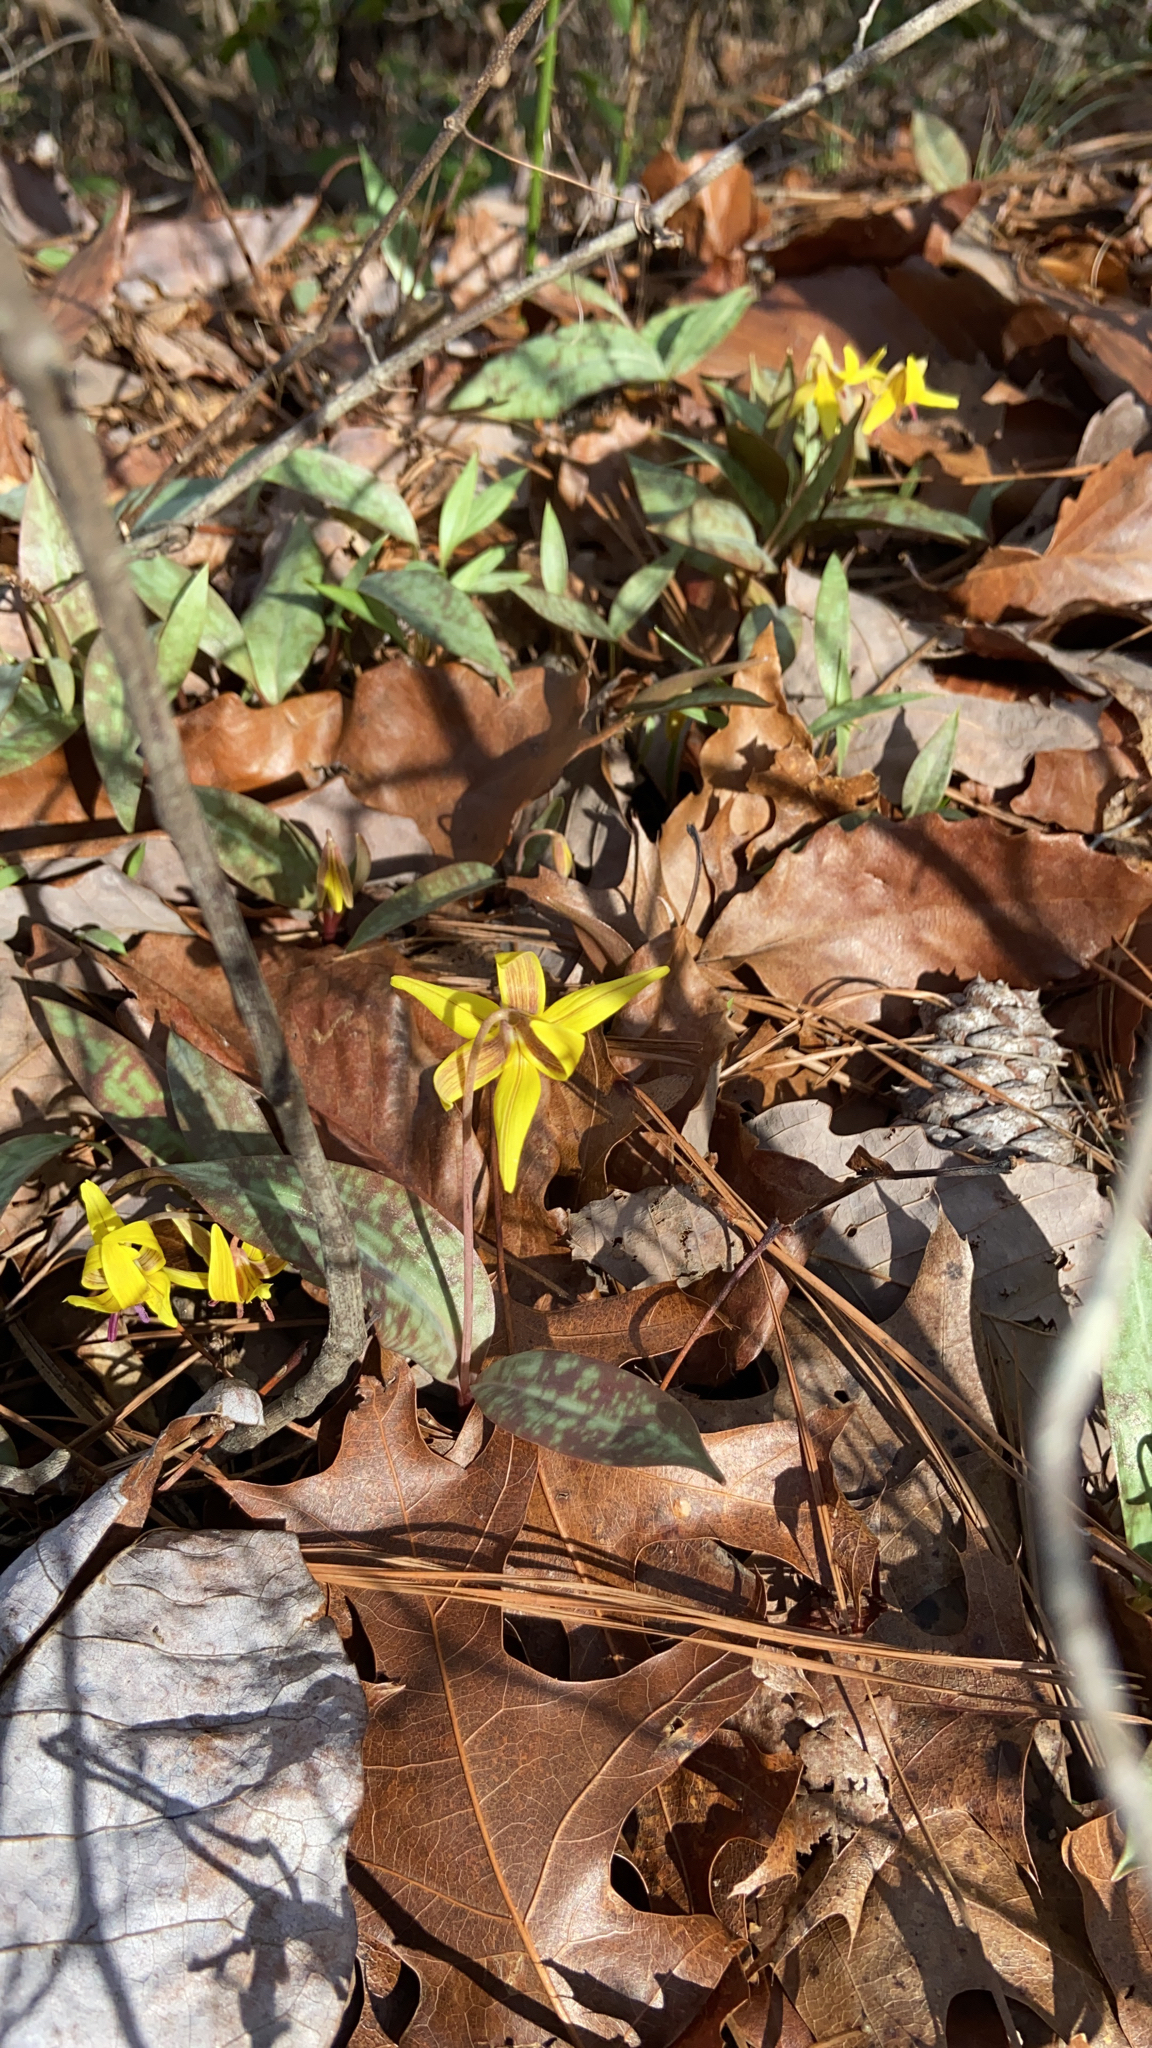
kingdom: Plantae
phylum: Tracheophyta
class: Liliopsida
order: Liliales
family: Liliaceae
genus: Erythronium
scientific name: Erythronium umbilicatum
